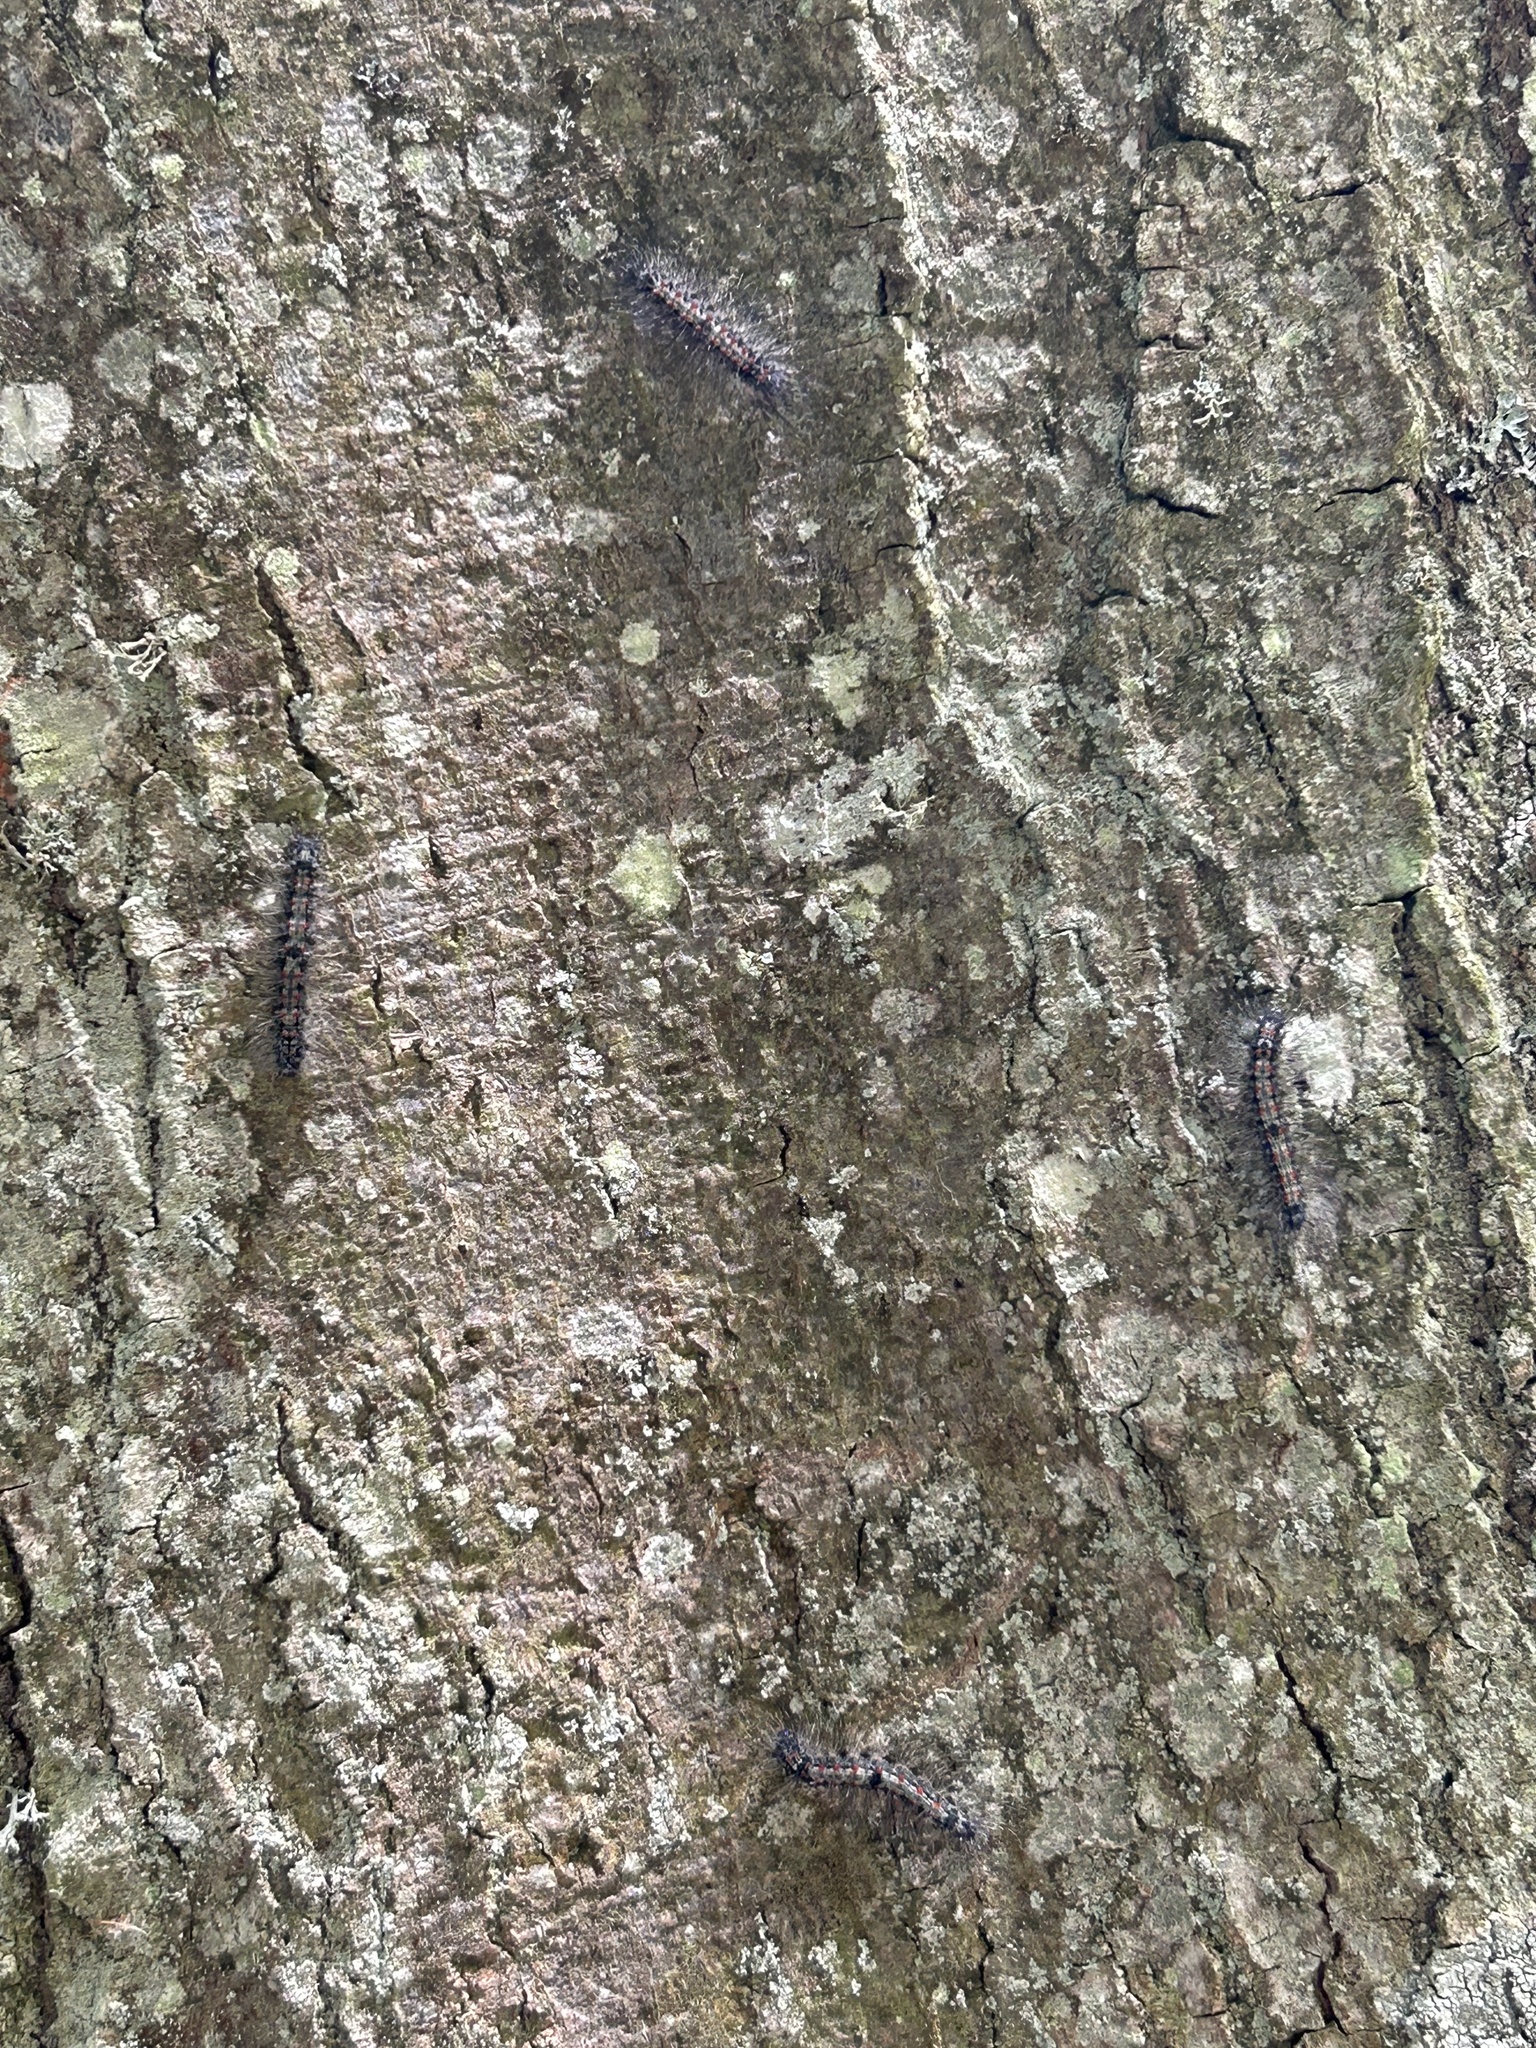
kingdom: Animalia
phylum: Arthropoda
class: Insecta
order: Lepidoptera
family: Erebidae
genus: Lithosia
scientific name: Lithosia quadra
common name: Four-spotted footman
